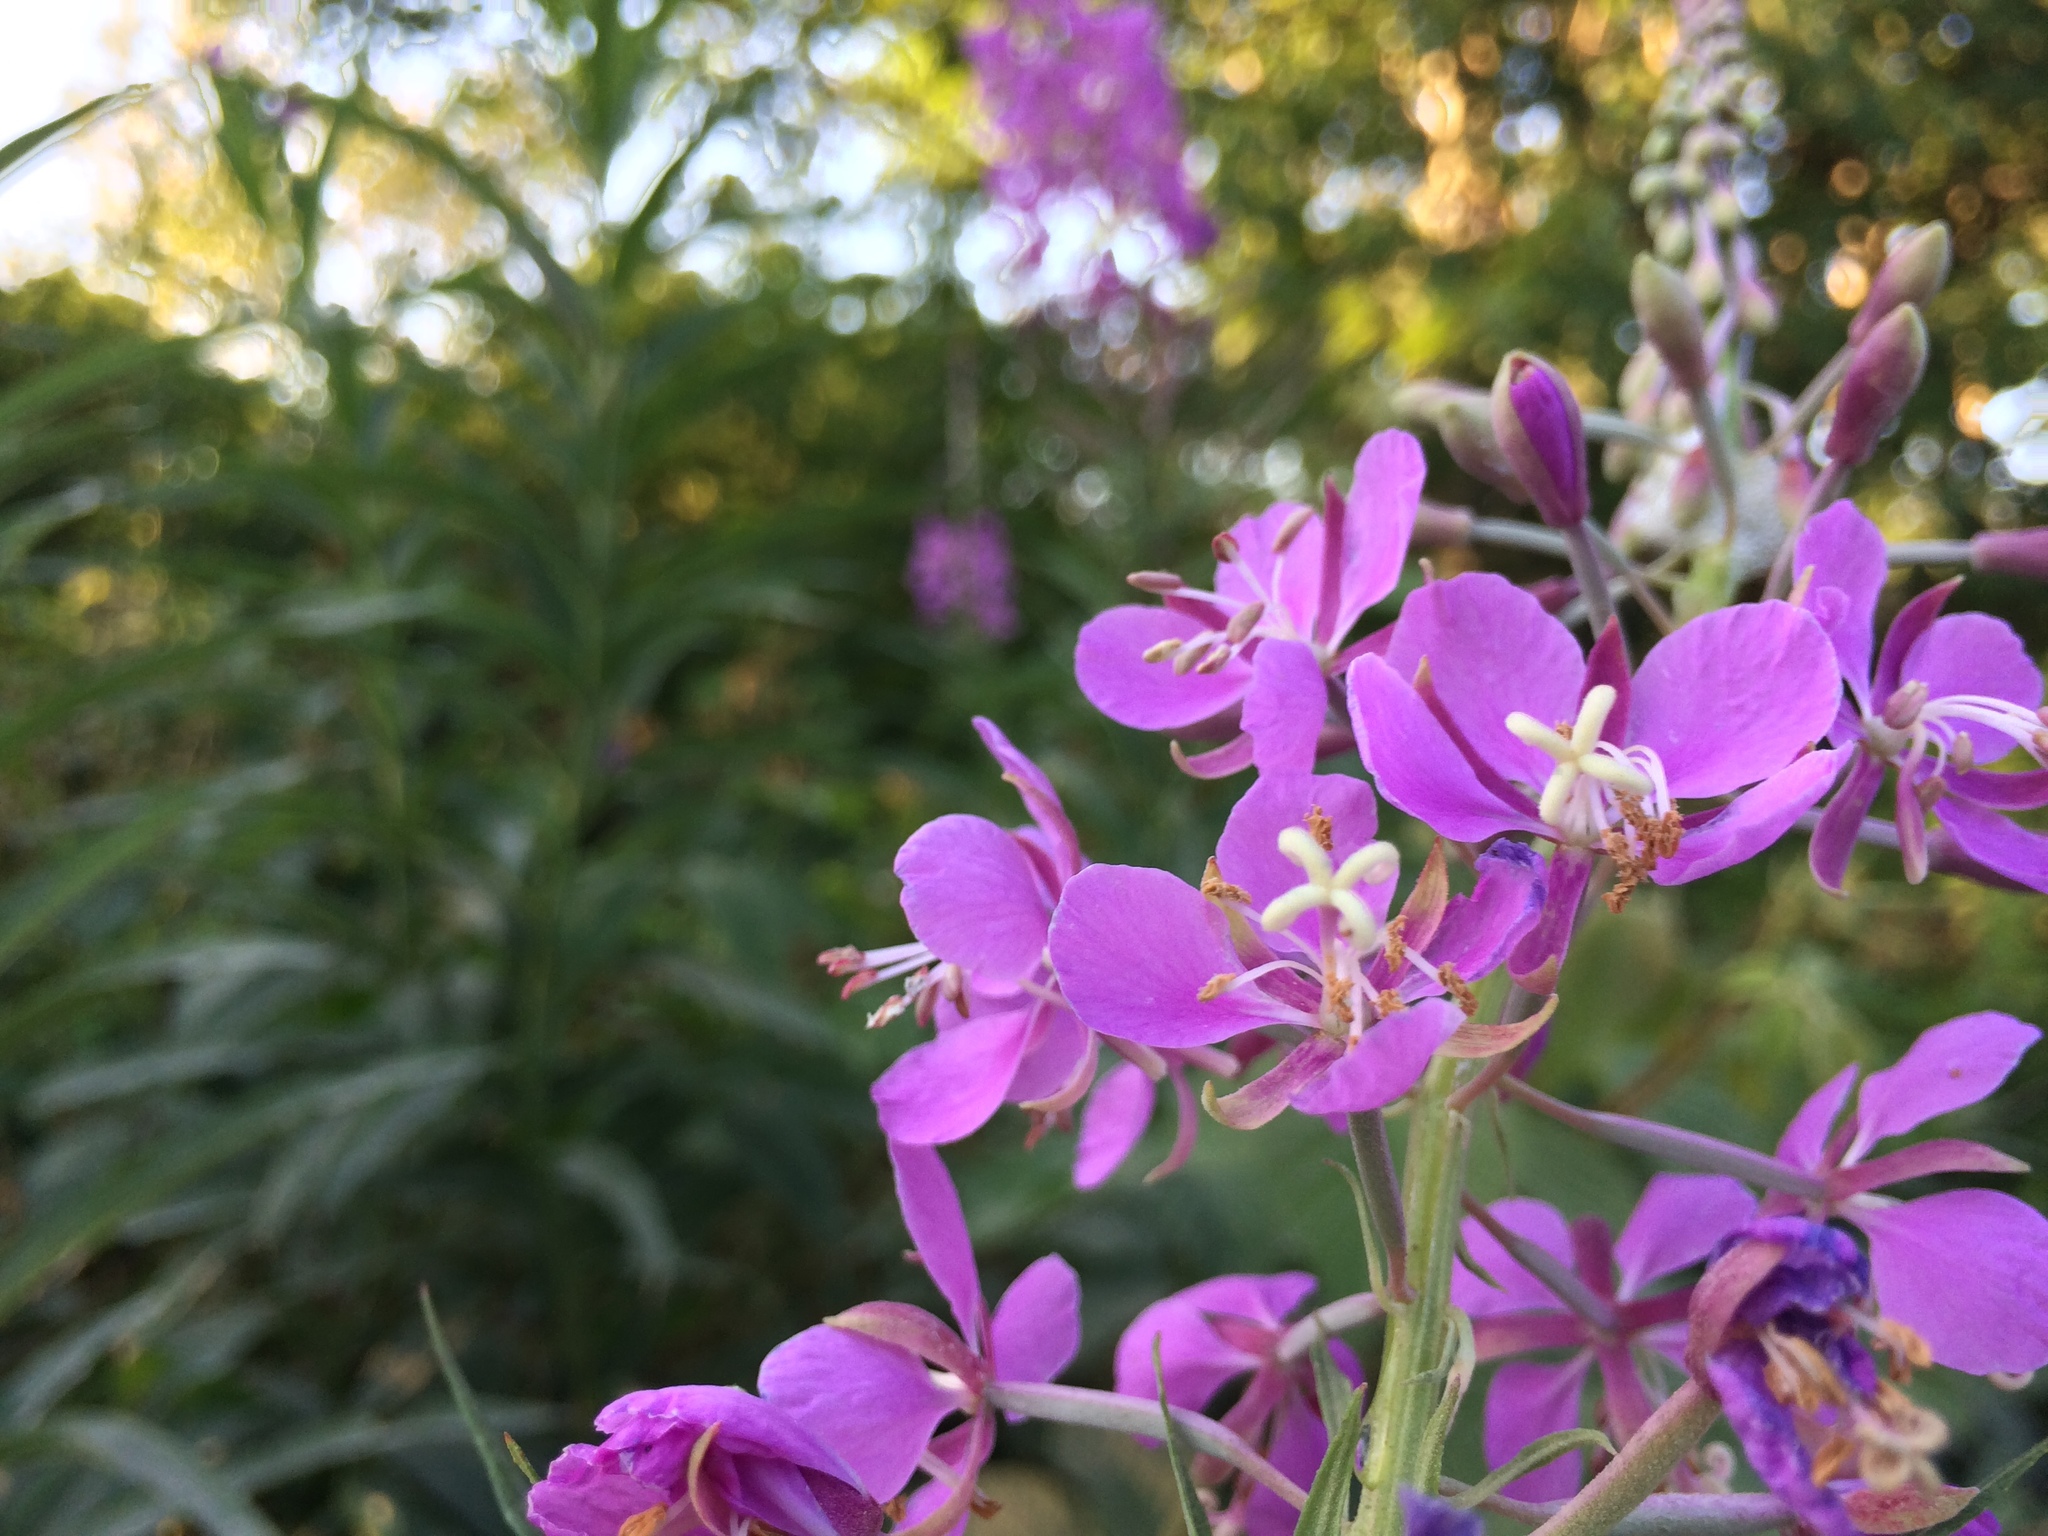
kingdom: Plantae
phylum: Tracheophyta
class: Magnoliopsida
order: Myrtales
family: Onagraceae
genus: Chamaenerion
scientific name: Chamaenerion angustifolium
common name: Fireweed
